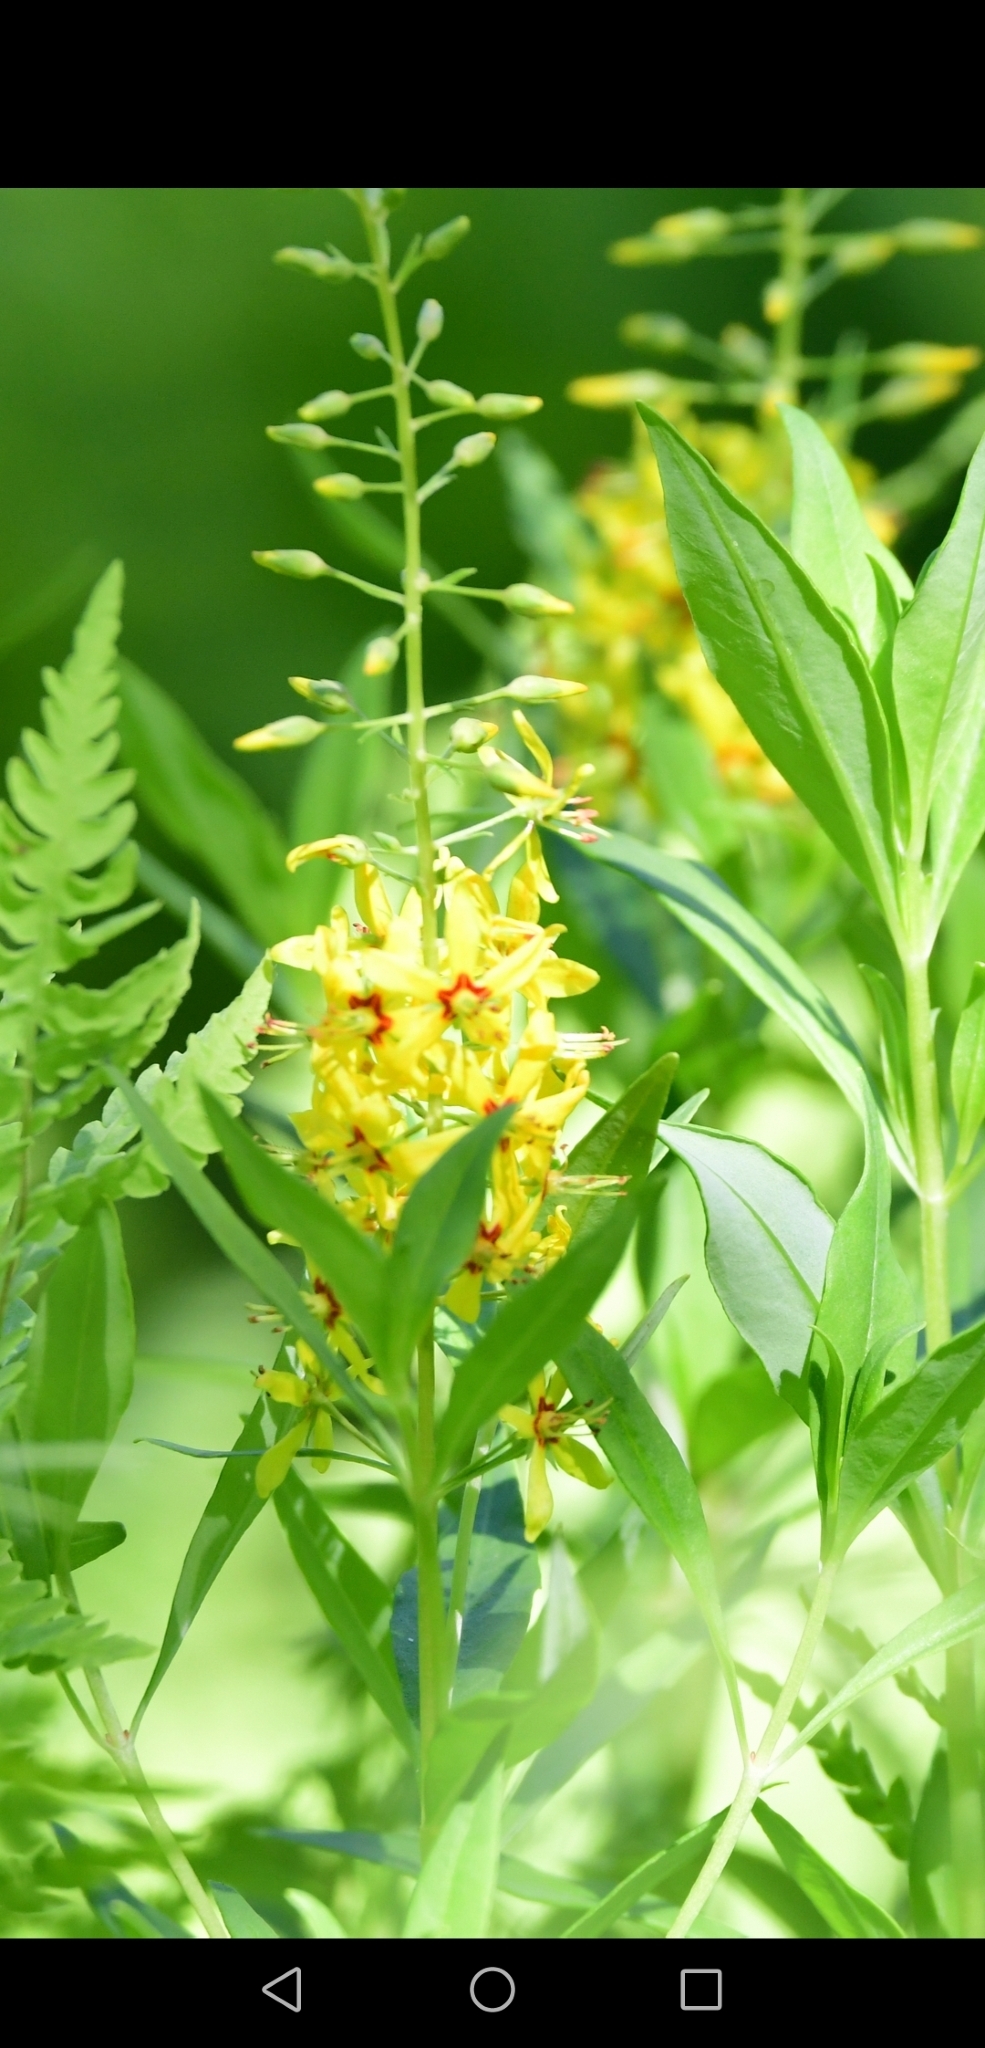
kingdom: Plantae
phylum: Tracheophyta
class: Magnoliopsida
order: Ericales
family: Primulaceae
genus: Lysimachia
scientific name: Lysimachia terrestris
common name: Lake loosestrife
